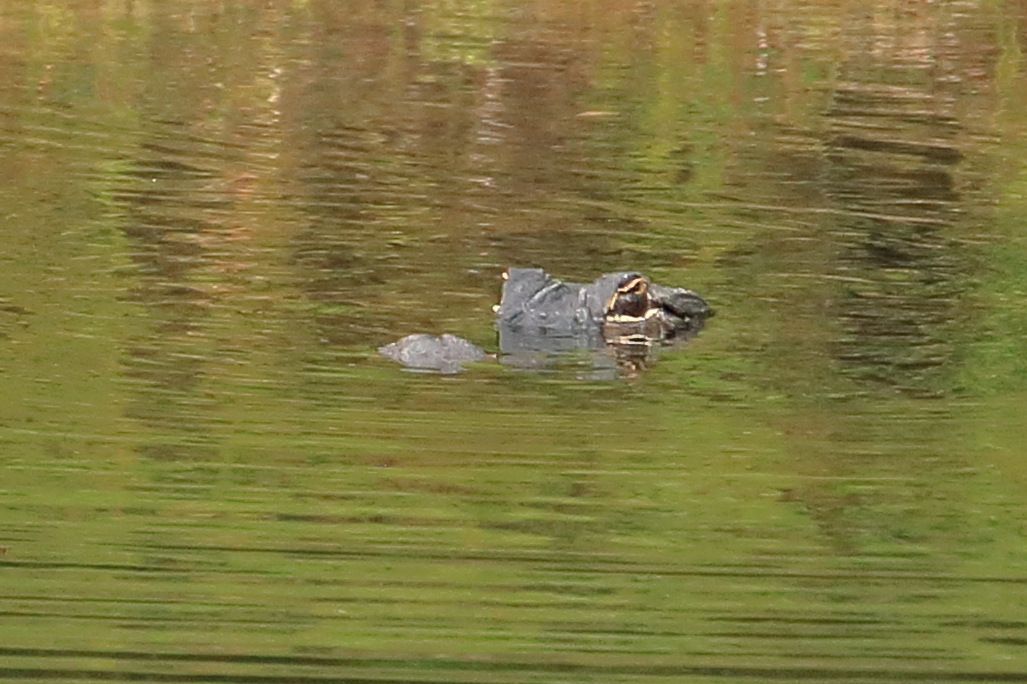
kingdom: Animalia
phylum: Chordata
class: Crocodylia
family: Alligatoridae
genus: Alligator
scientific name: Alligator mississippiensis
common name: American alligator
